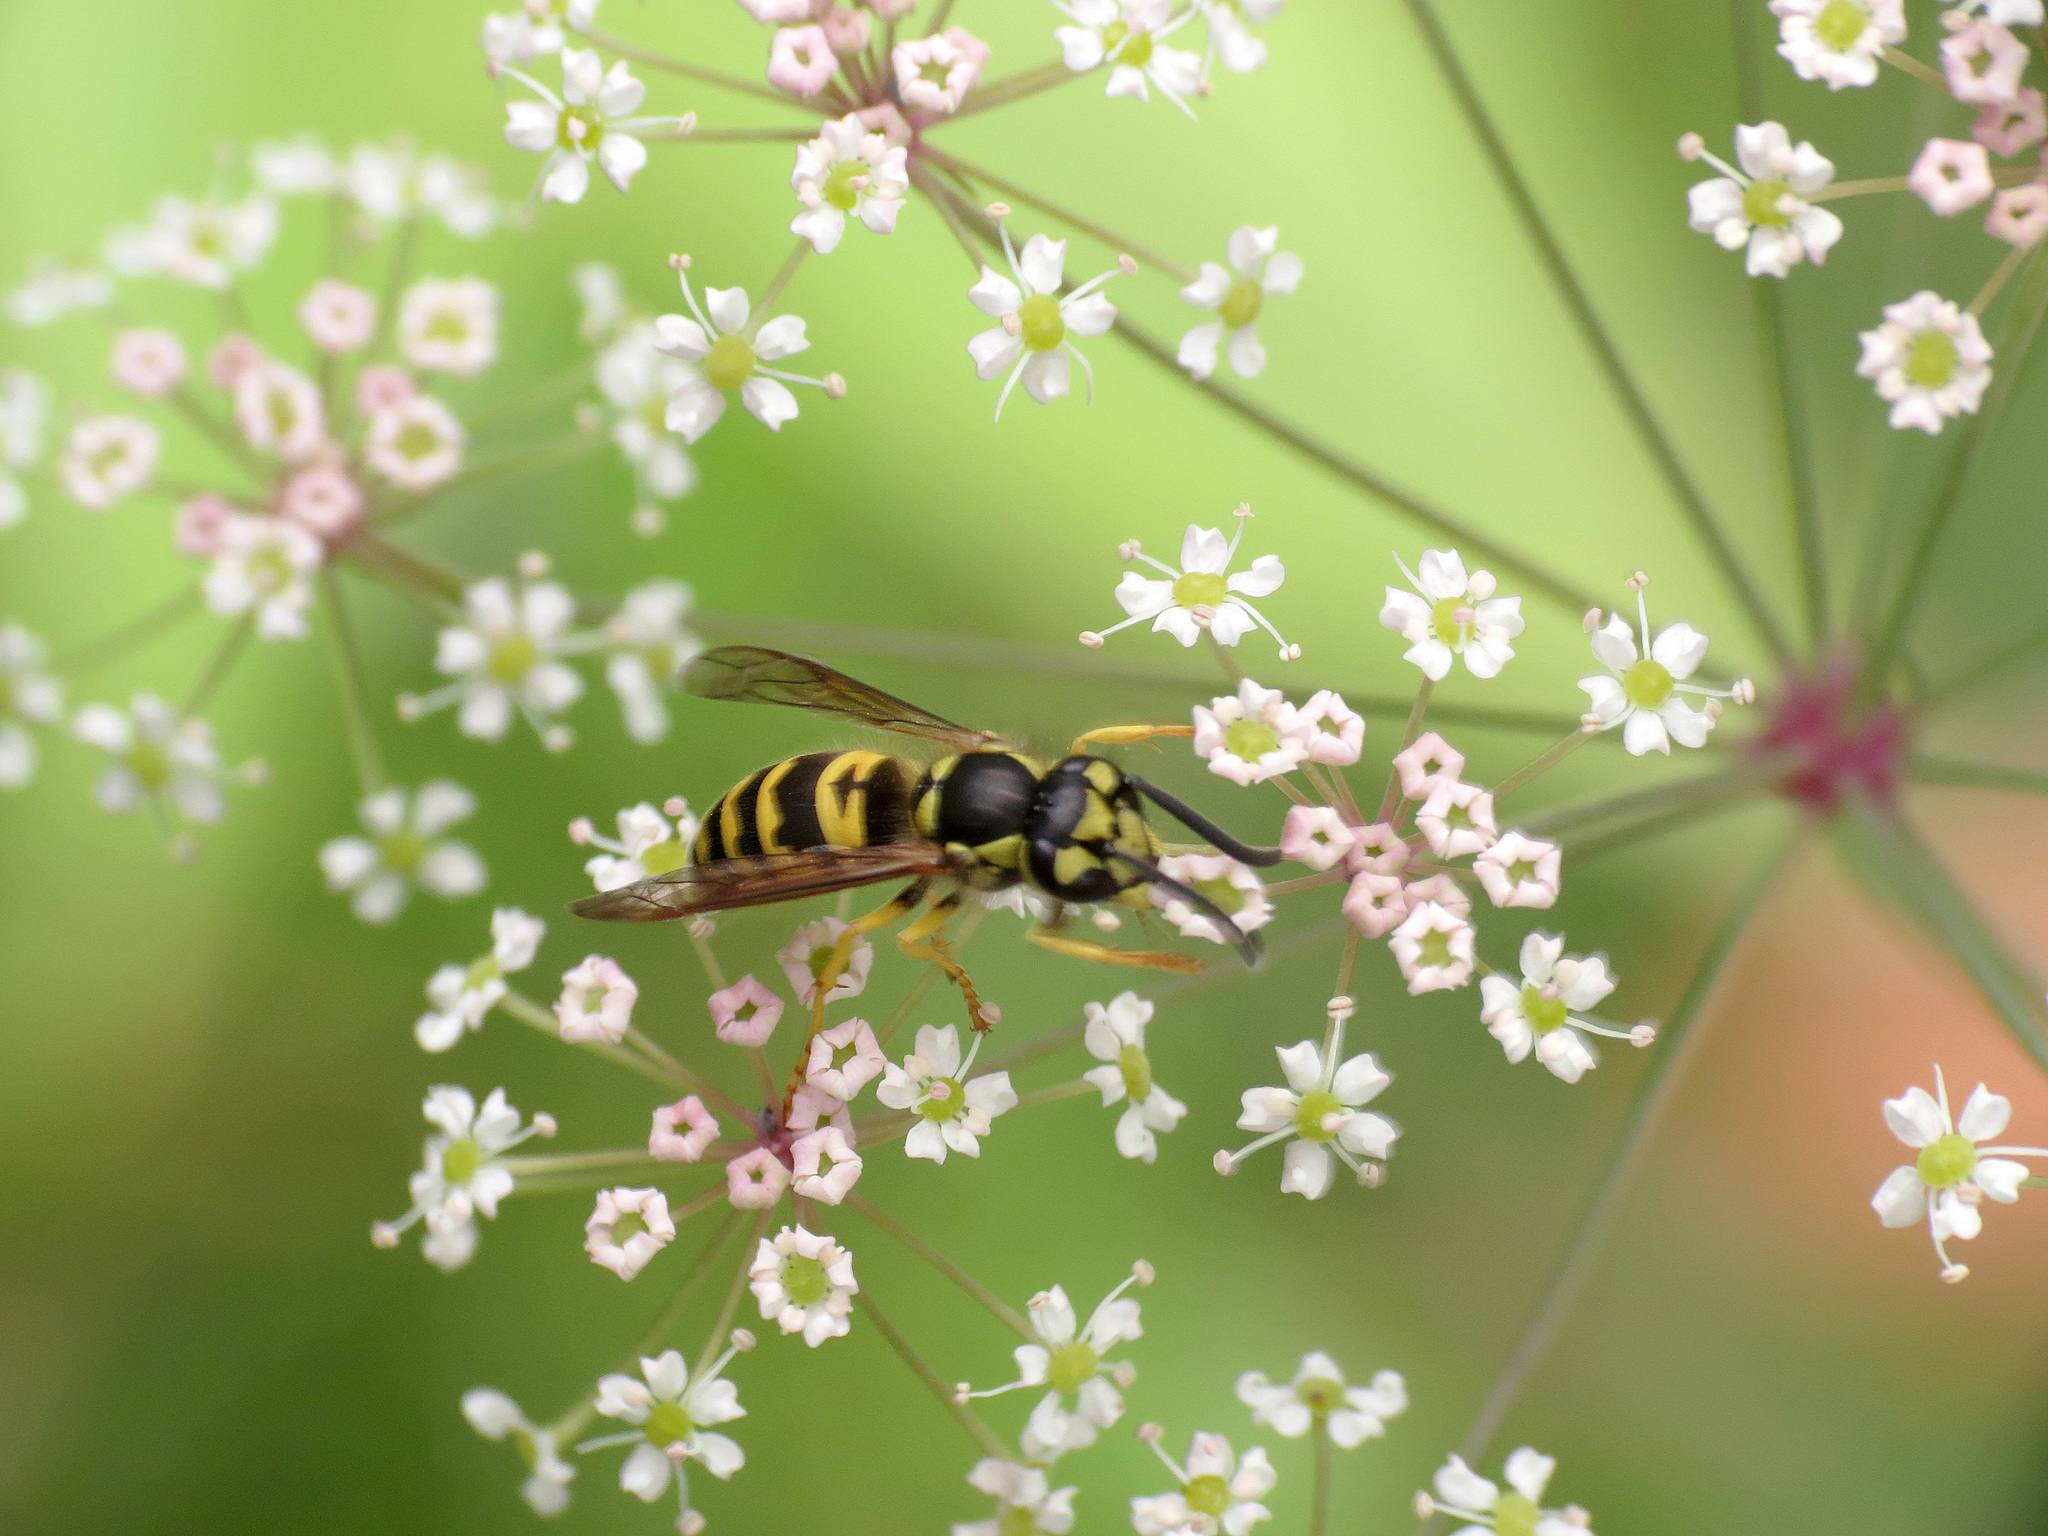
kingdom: Animalia
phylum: Arthropoda
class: Insecta
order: Hymenoptera
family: Vespidae
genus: Vespula
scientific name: Vespula maculifrons
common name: Eastern yellowjacket
